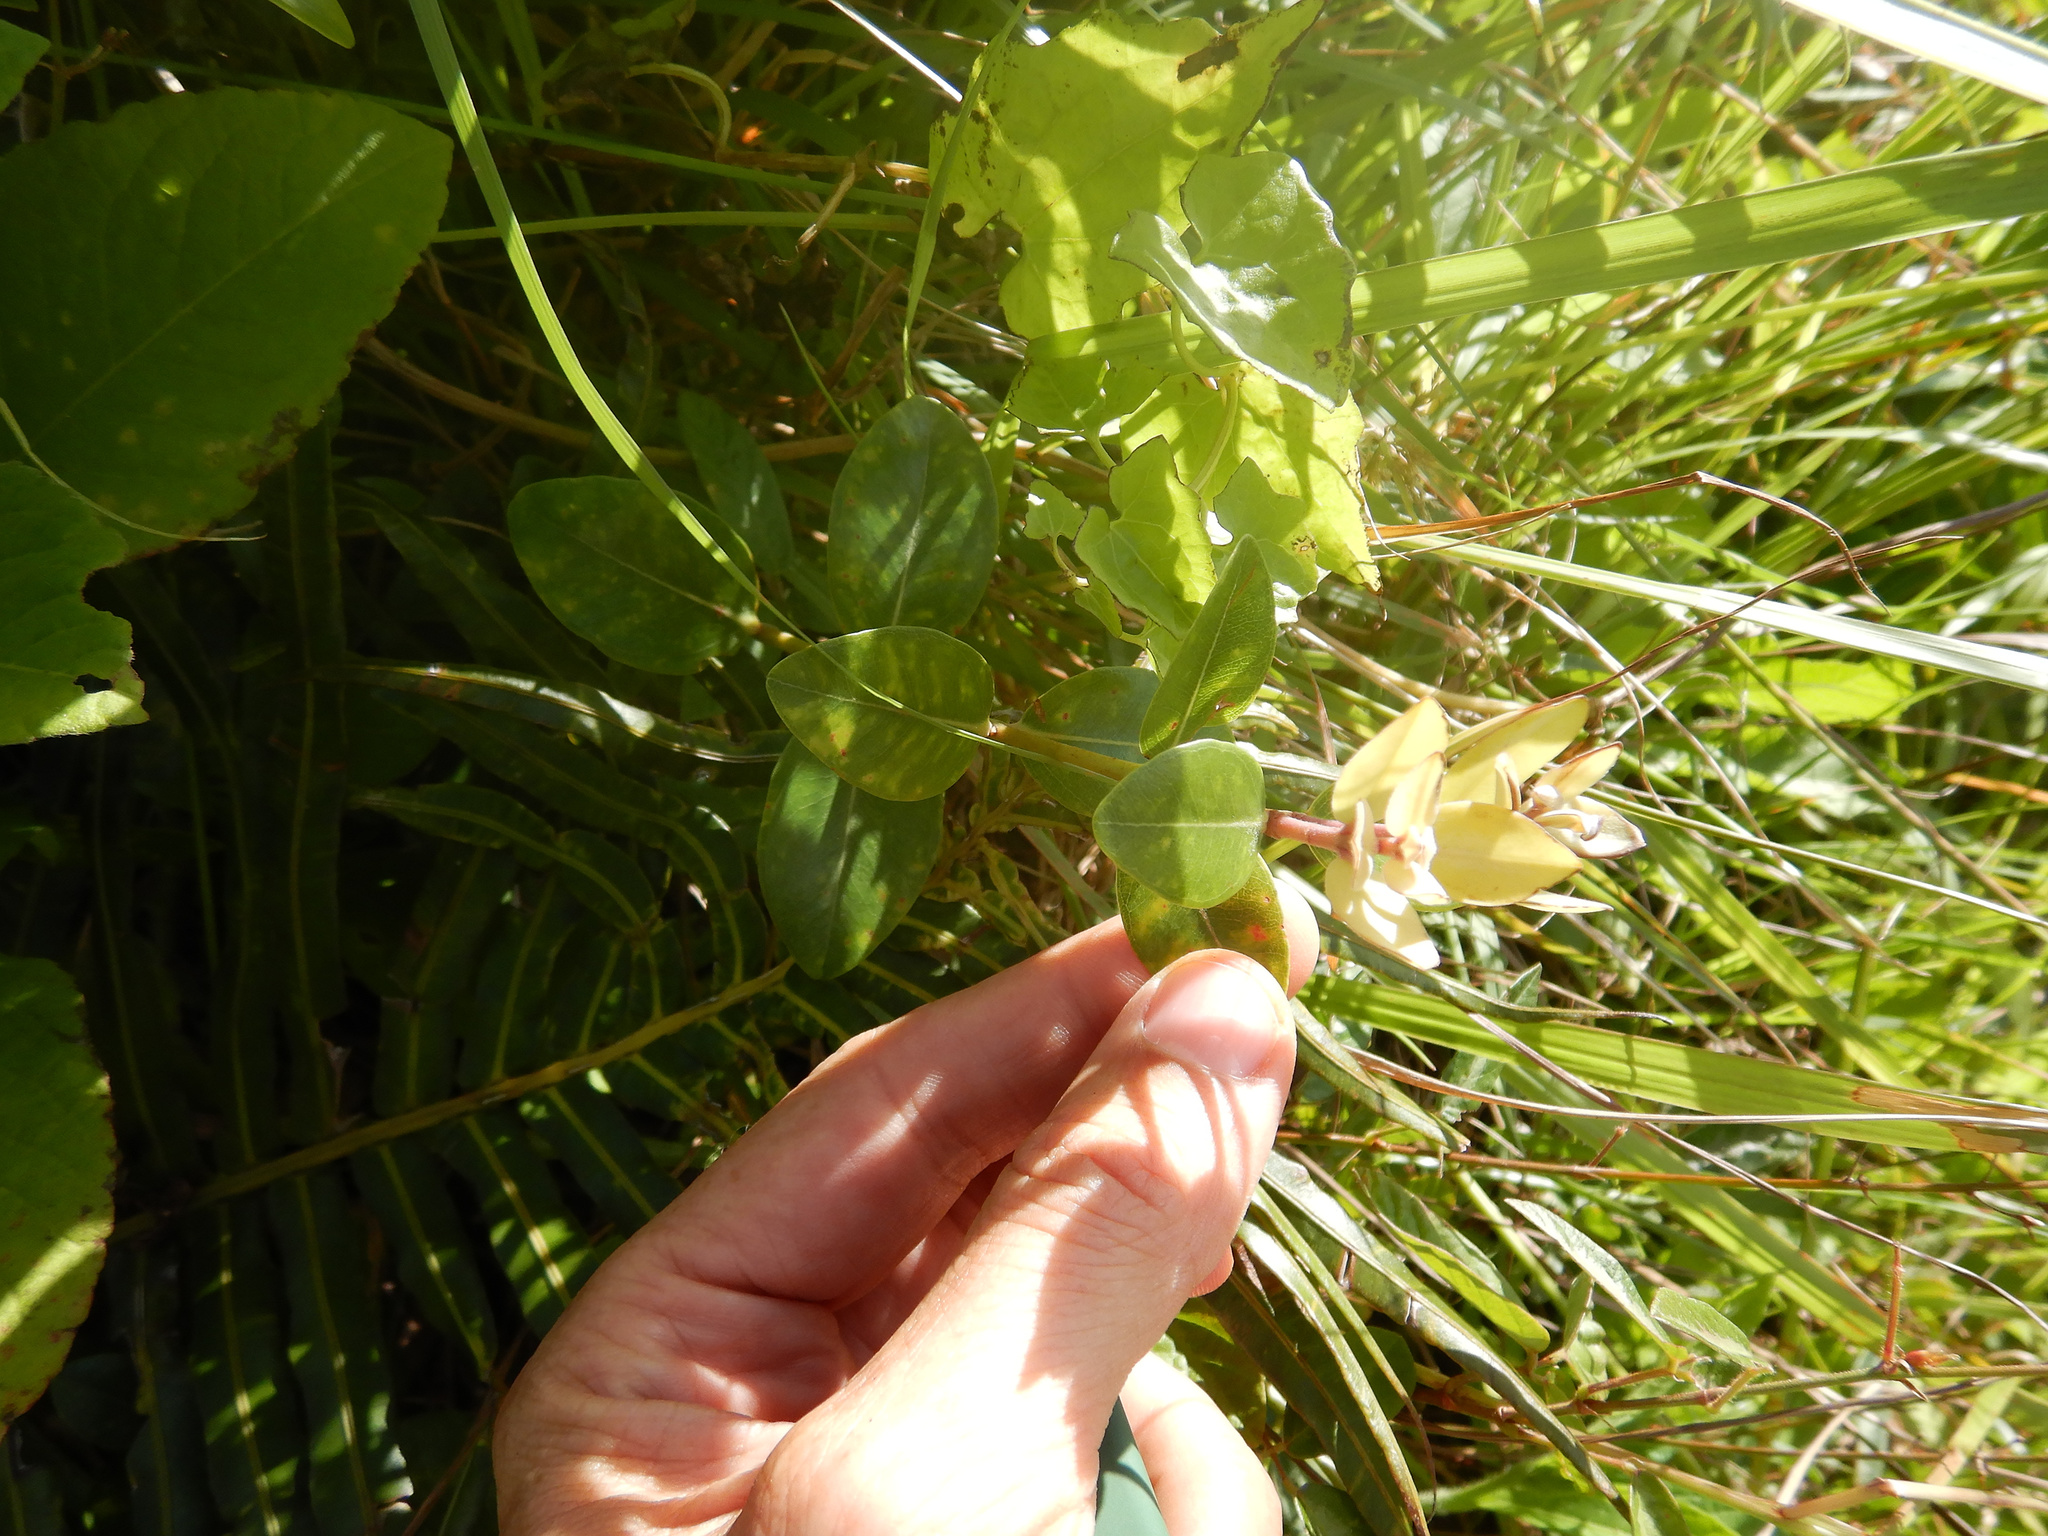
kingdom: Plantae
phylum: Tracheophyta
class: Magnoliopsida
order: Myrtales
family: Myrtaceae
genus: Metrosideros
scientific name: Metrosideros collina
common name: Vunga
